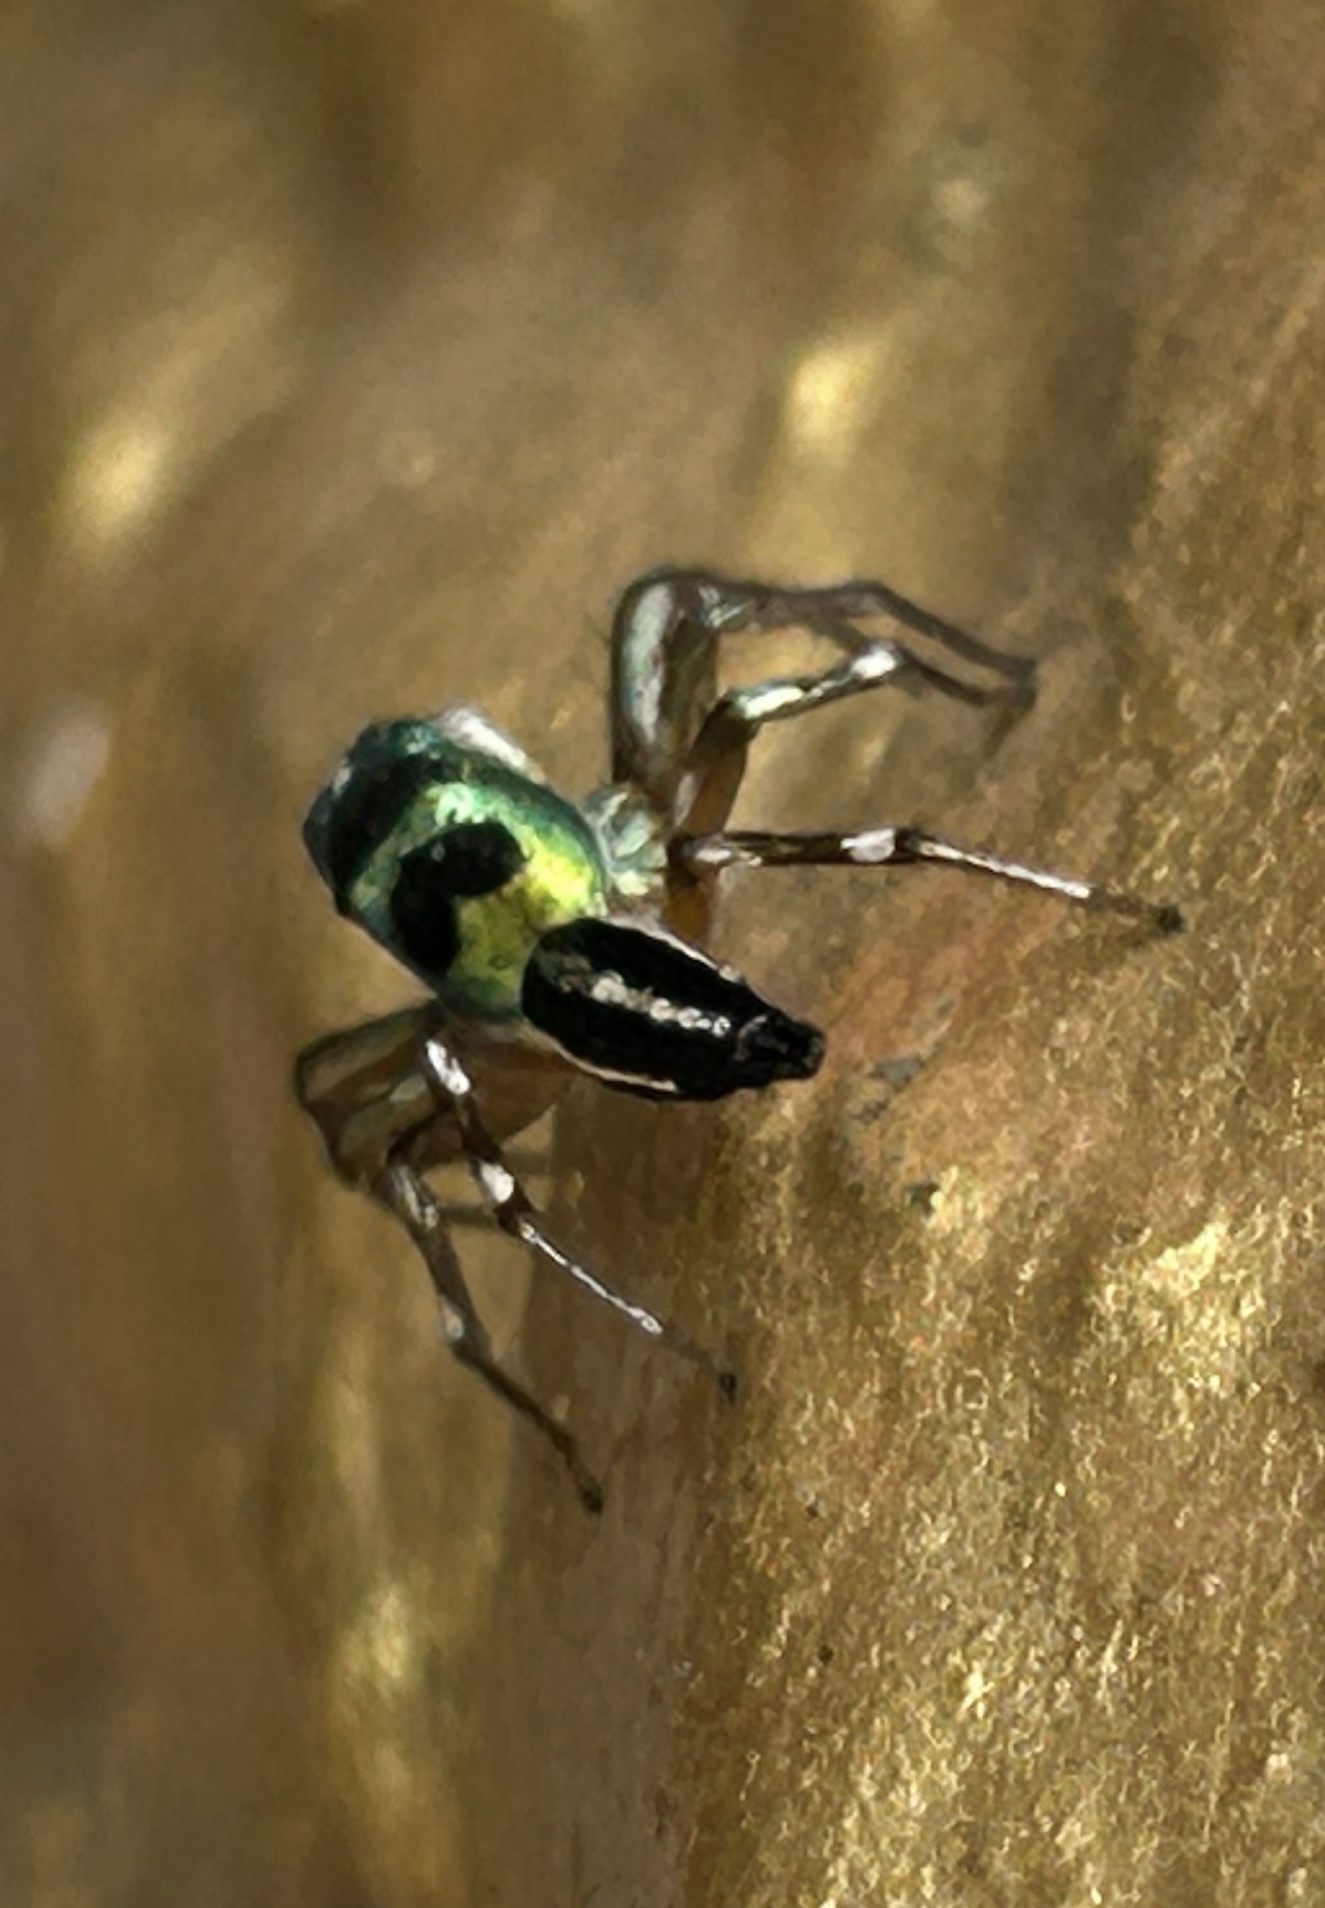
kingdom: Animalia
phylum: Arthropoda
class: Arachnida
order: Araneae
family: Salticidae
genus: Cosmophasis
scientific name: Cosmophasis thalassina
